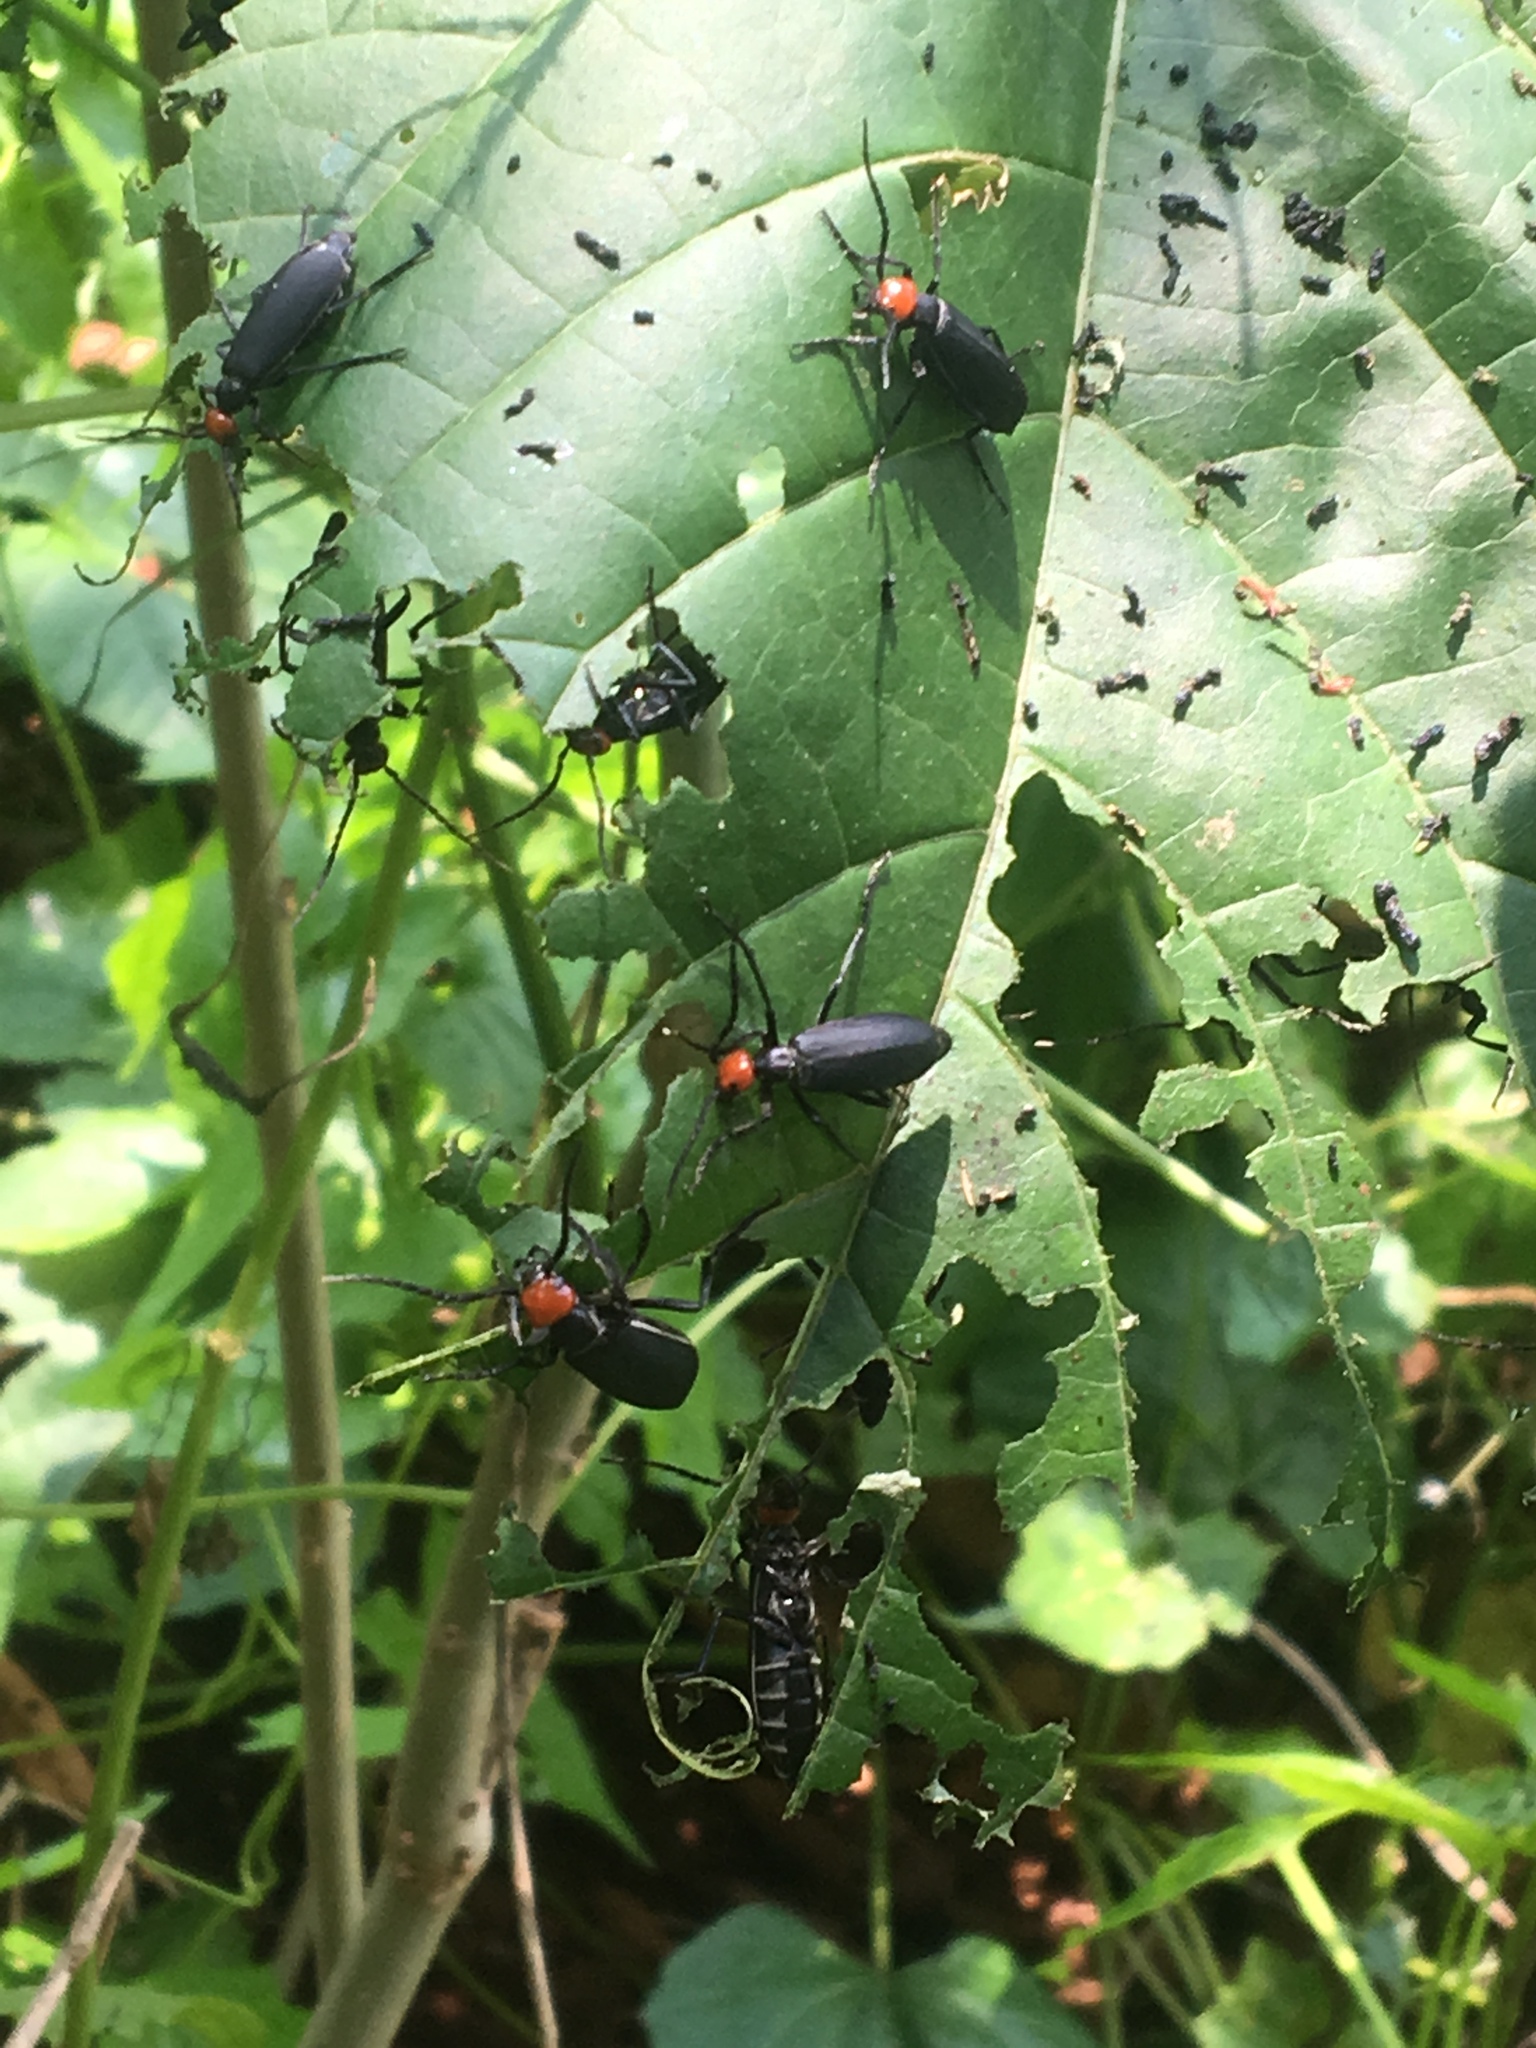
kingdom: Animalia
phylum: Arthropoda
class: Insecta
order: Coleoptera
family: Meloidae
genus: Epicauta
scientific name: Epicauta tibialis
